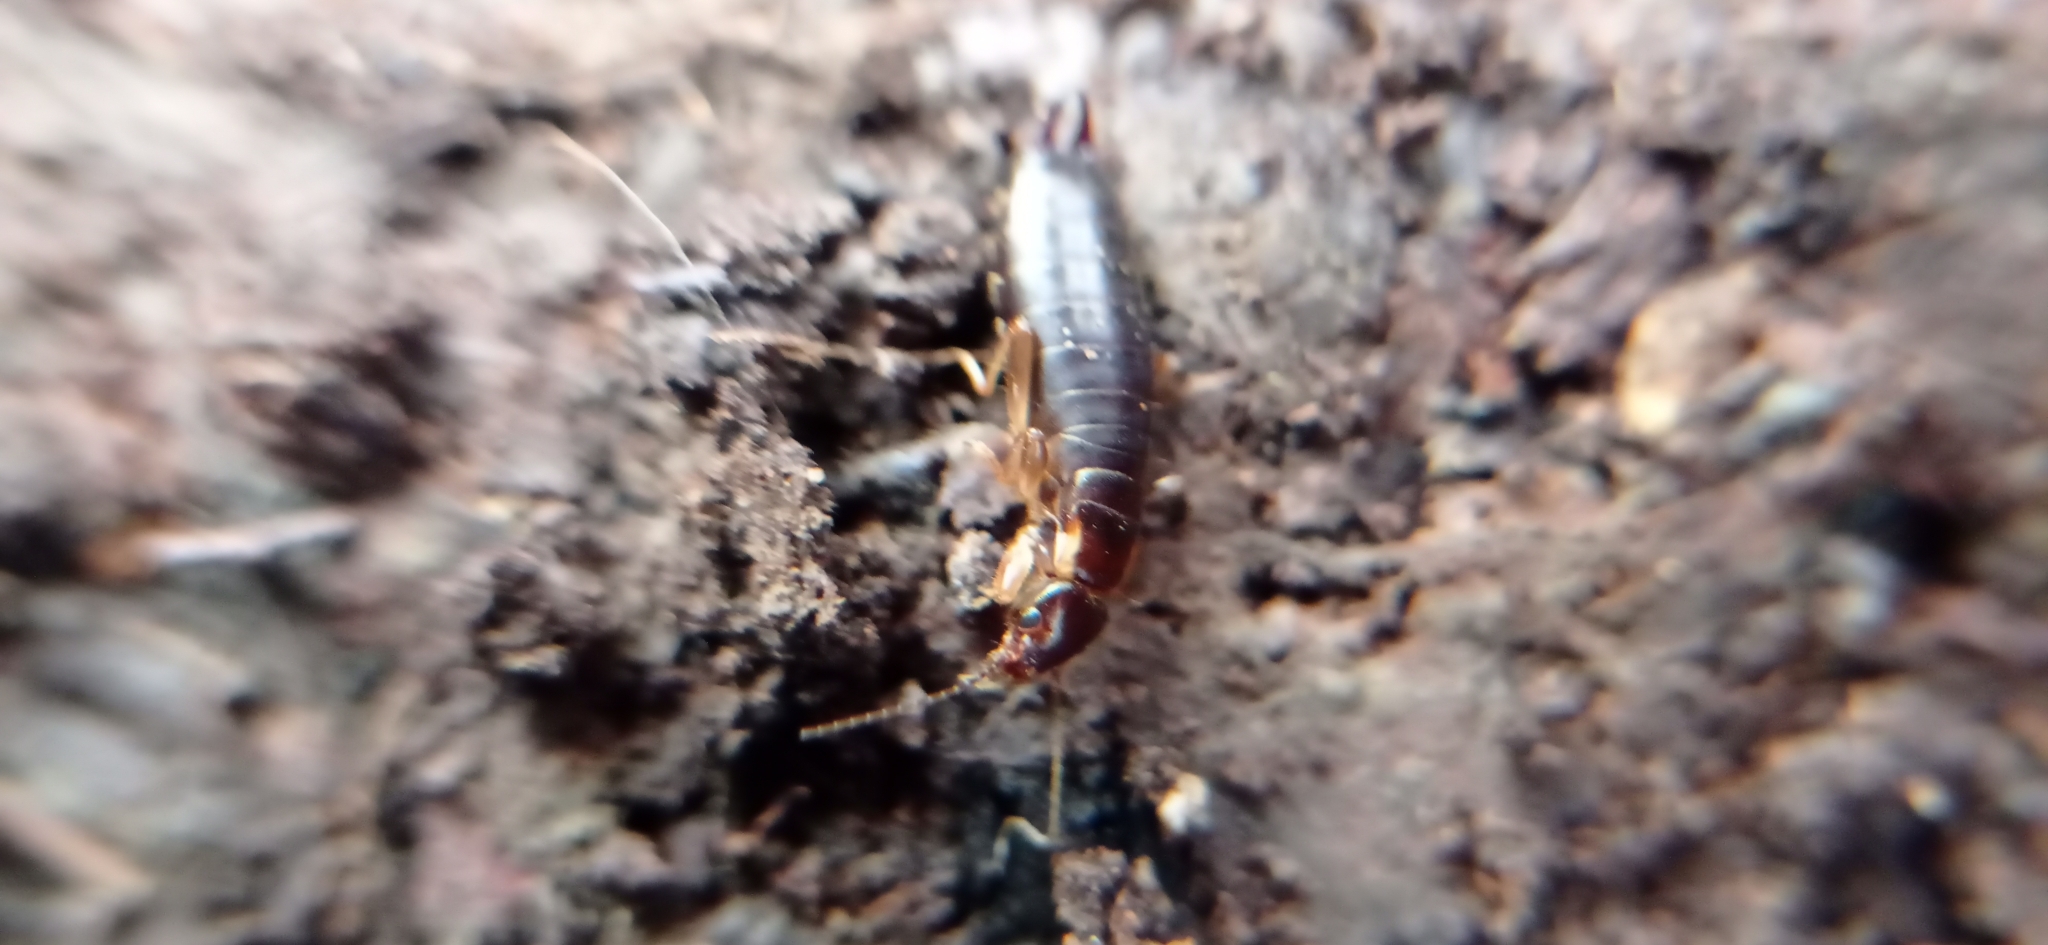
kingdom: Animalia
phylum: Arthropoda
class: Insecta
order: Dermaptera
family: Pygidicranidae
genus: Esphalmenus
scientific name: Esphalmenus lativentris
